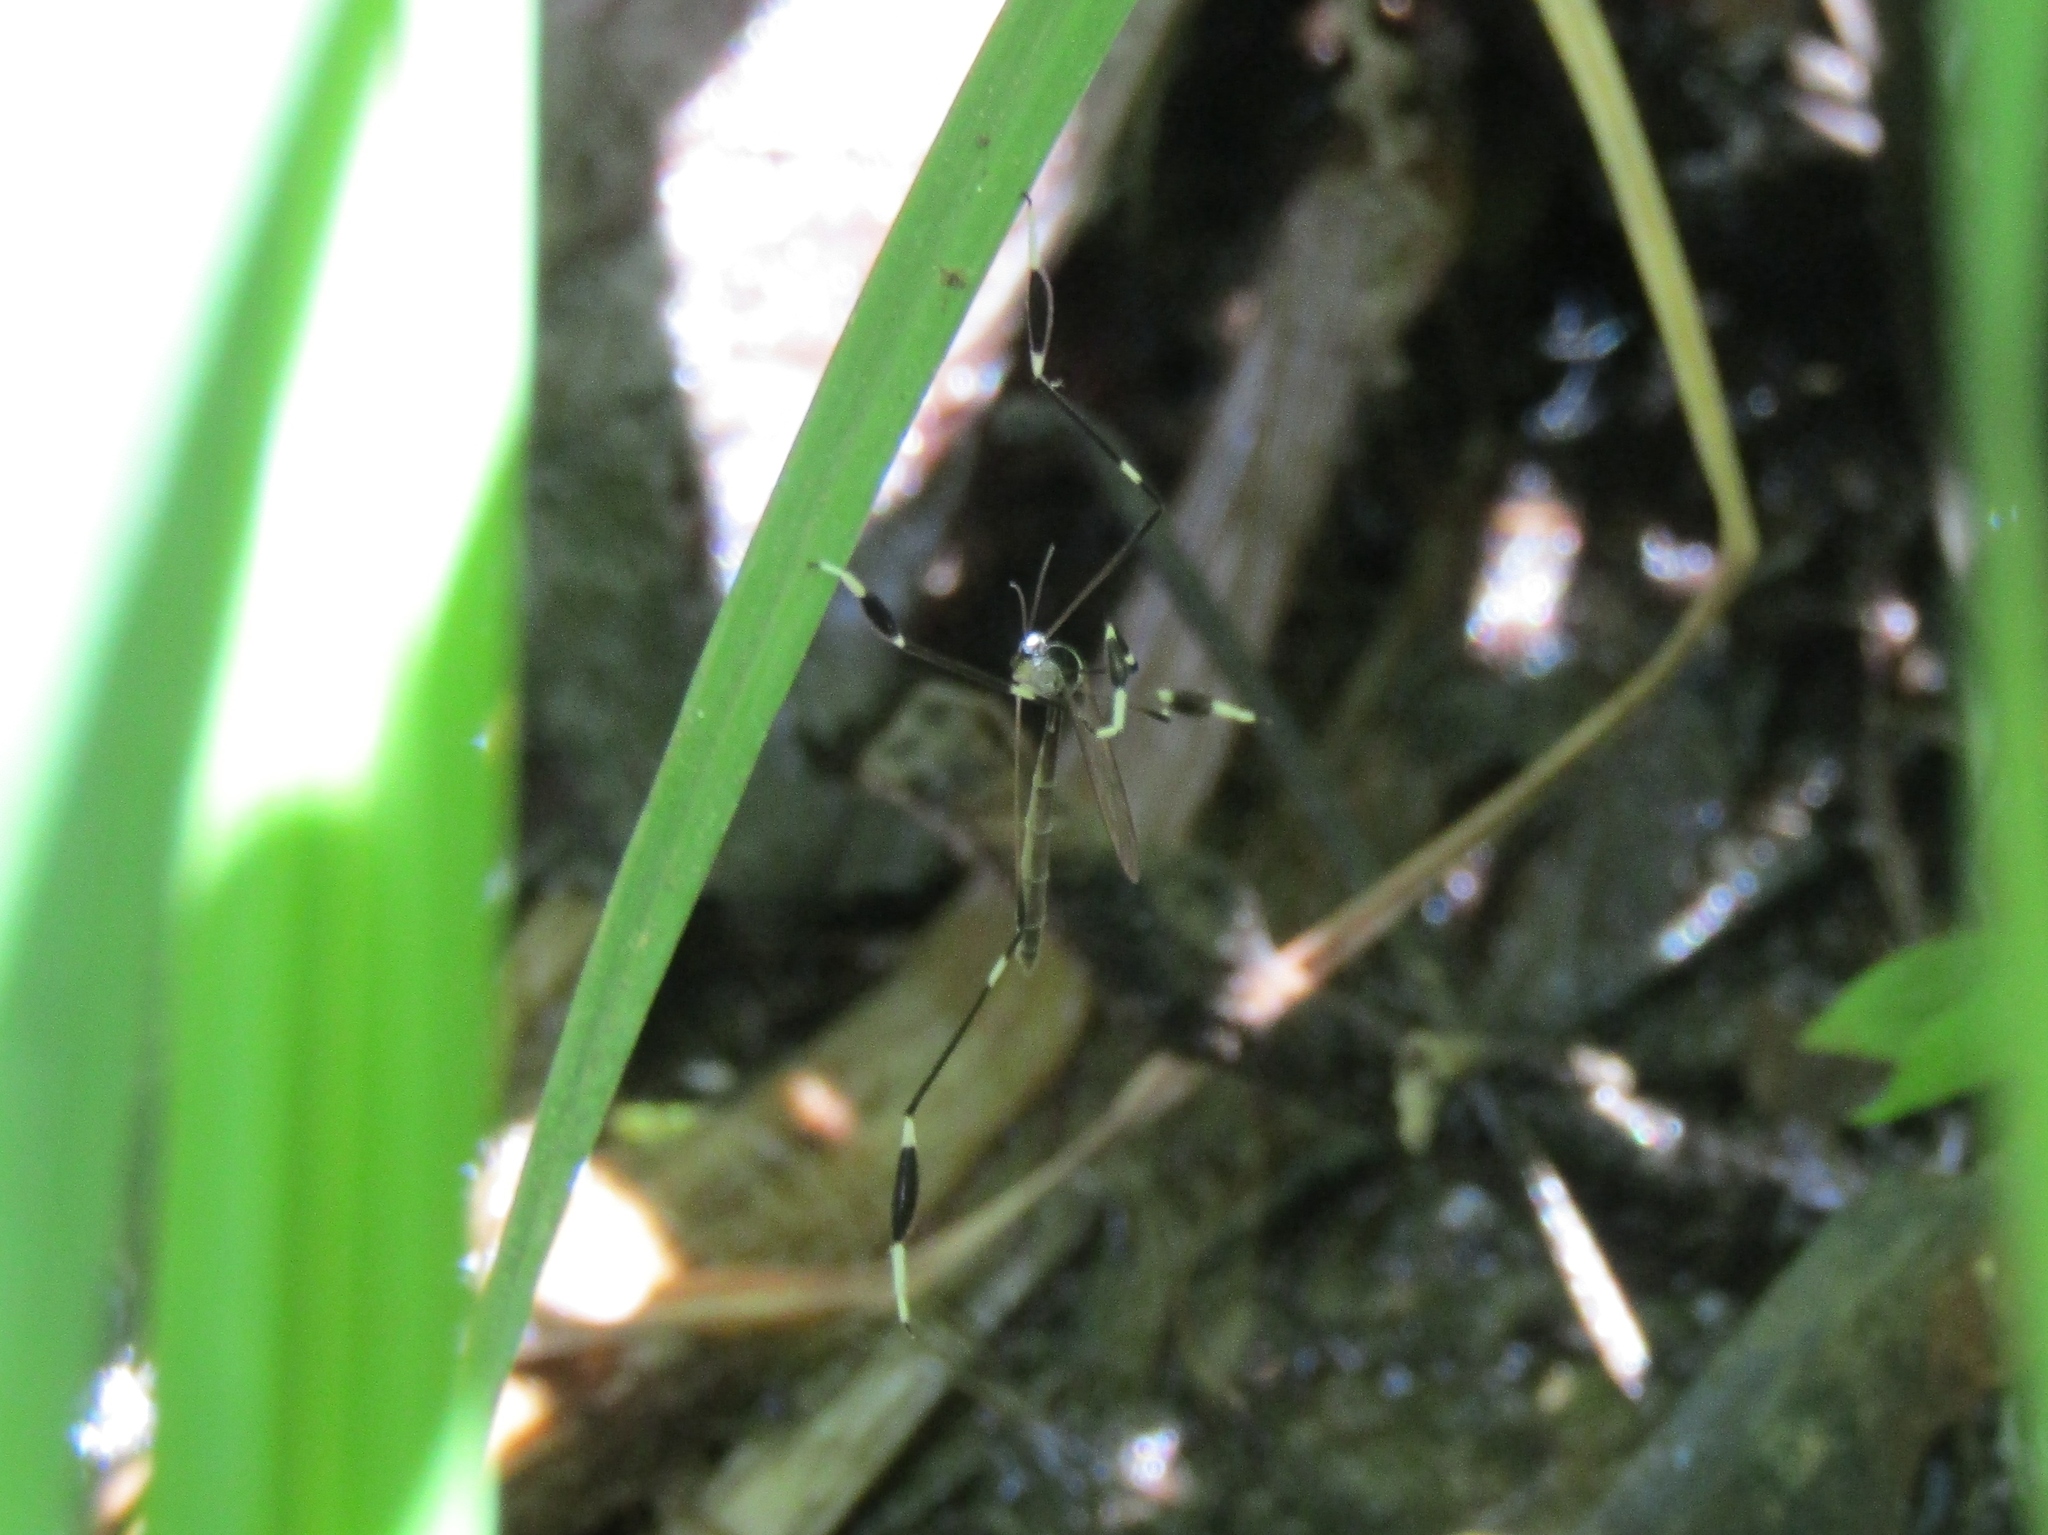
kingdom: Animalia
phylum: Arthropoda
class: Insecta
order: Diptera
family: Ptychopteridae
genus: Bittacomorpha
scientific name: Bittacomorpha clavipes
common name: Eastern phantom crane fly
